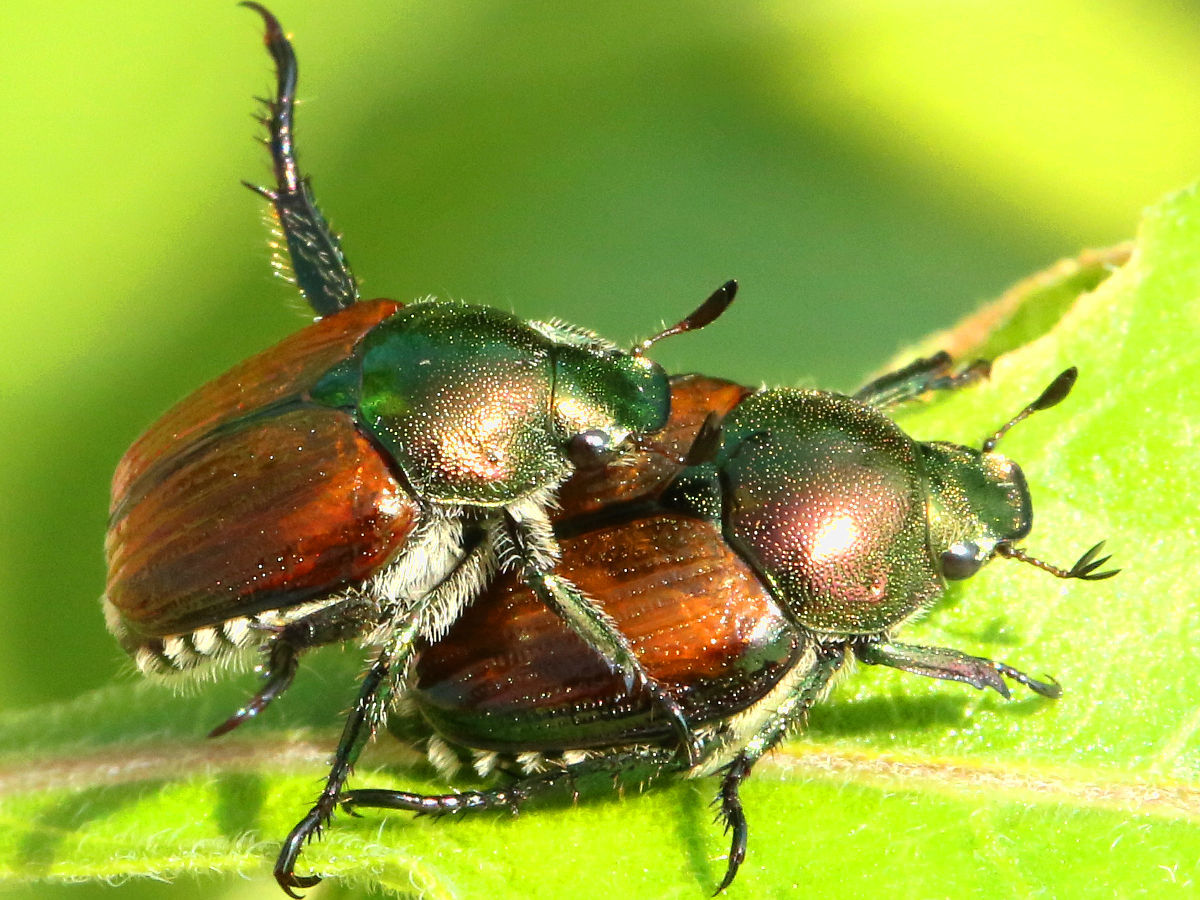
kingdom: Animalia
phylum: Arthropoda
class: Insecta
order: Coleoptera
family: Scarabaeidae
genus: Popillia
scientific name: Popillia japonica
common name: Japanese beetle
